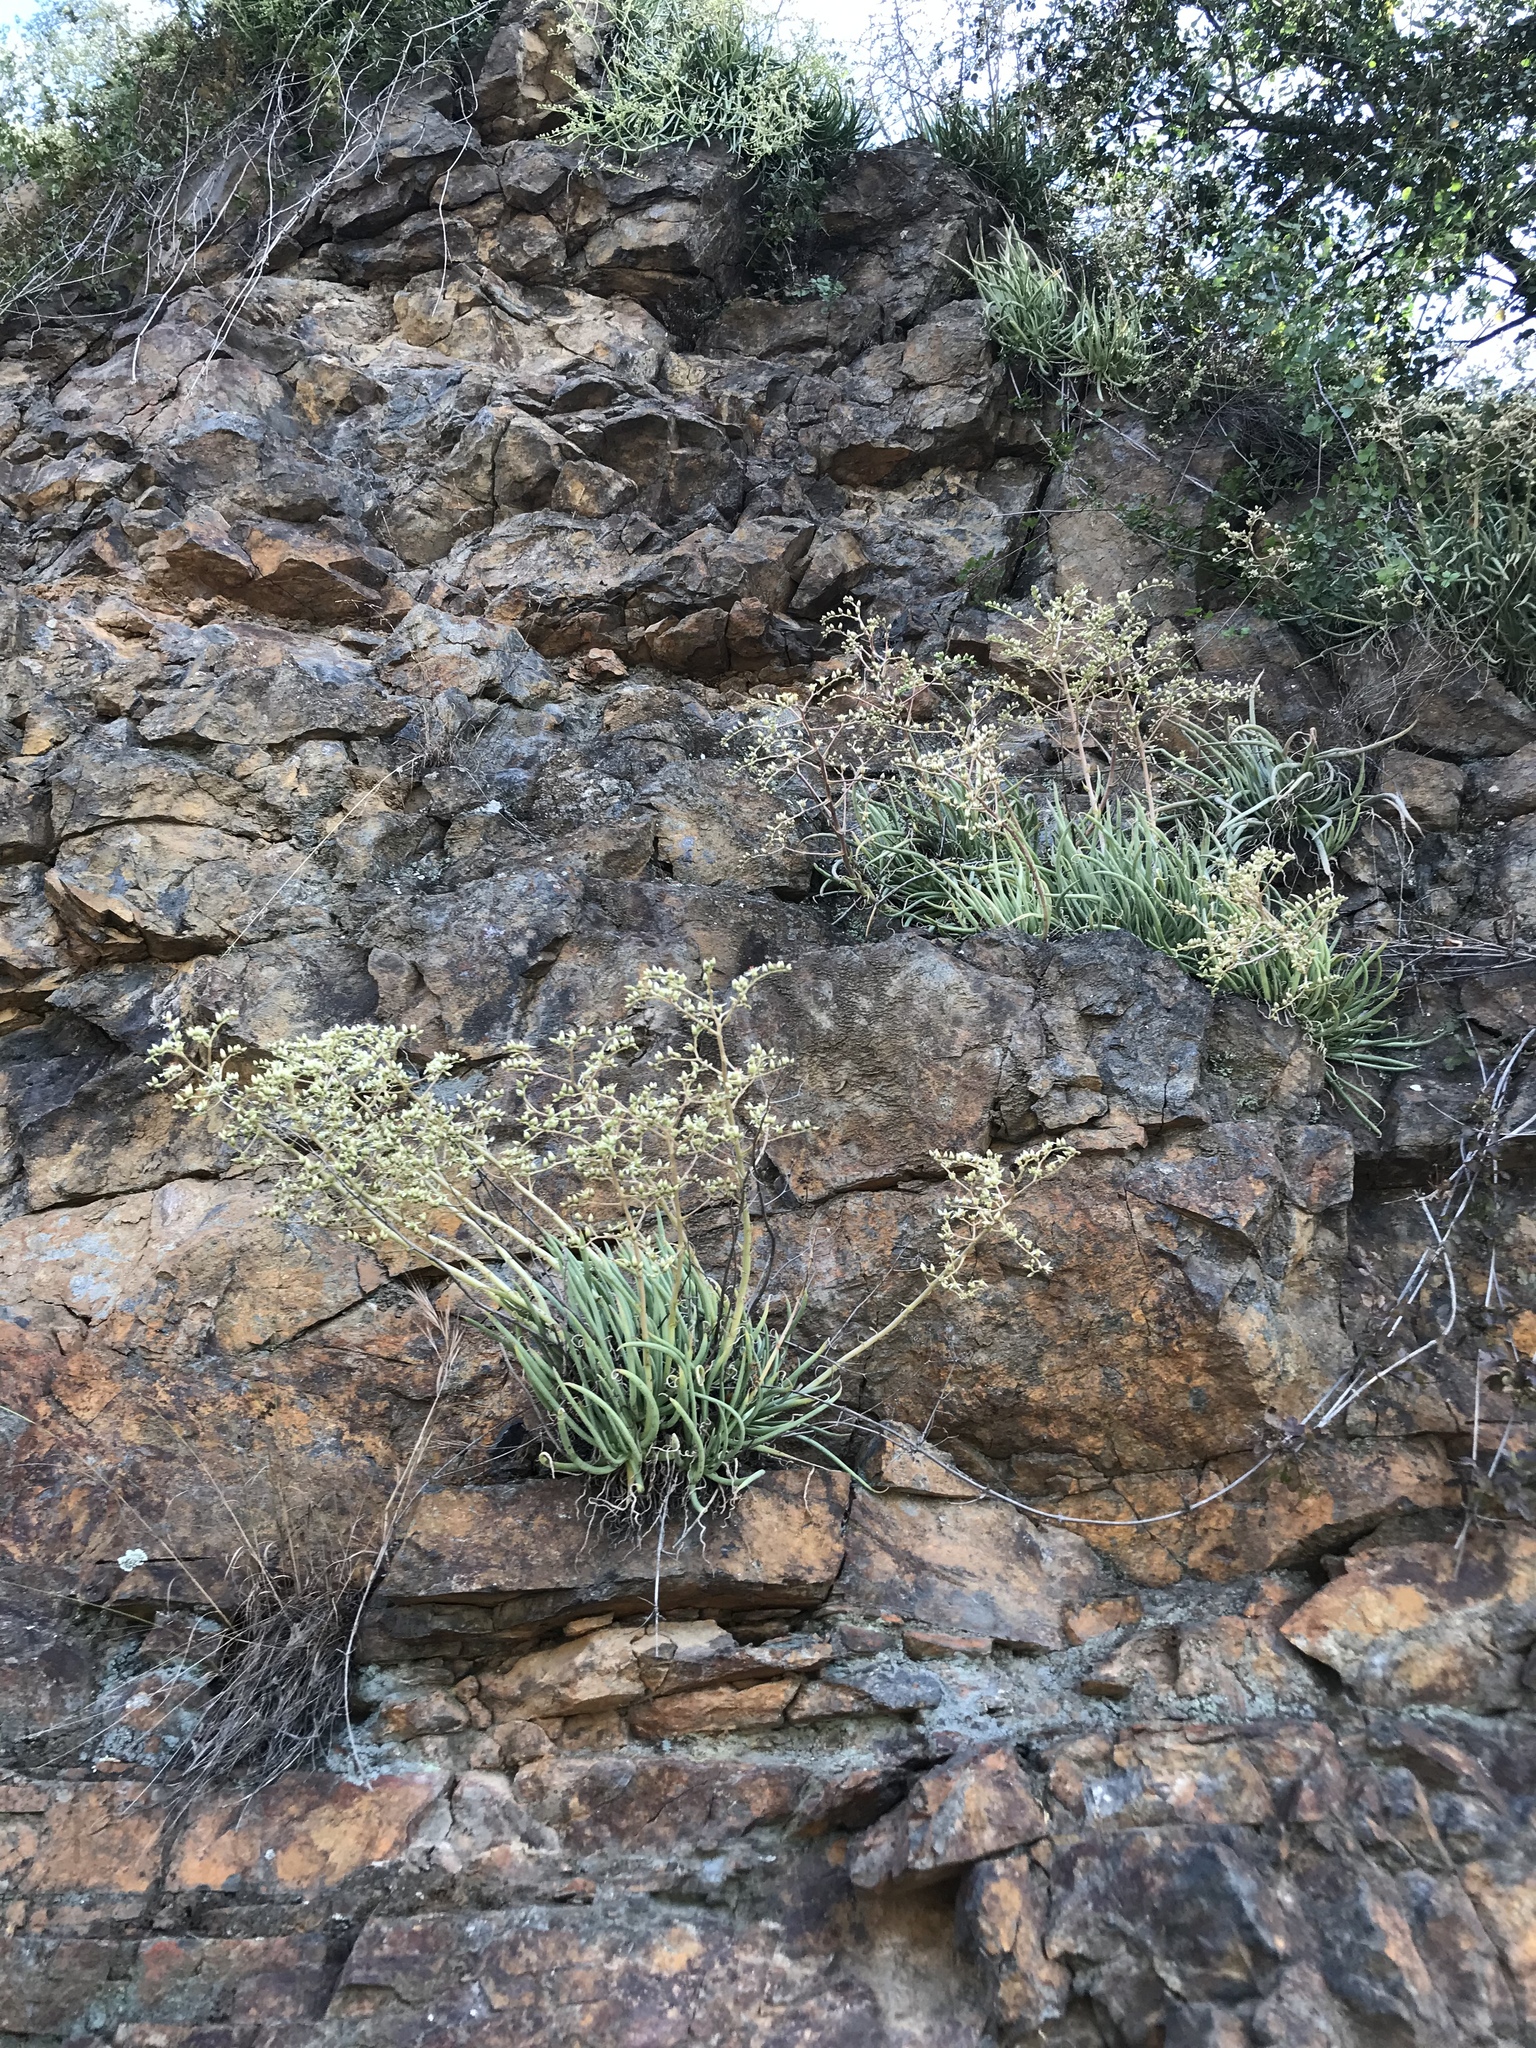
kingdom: Plantae
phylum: Tracheophyta
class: Magnoliopsida
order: Saxifragales
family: Crassulaceae
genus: Dudleya
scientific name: Dudleya edulis
